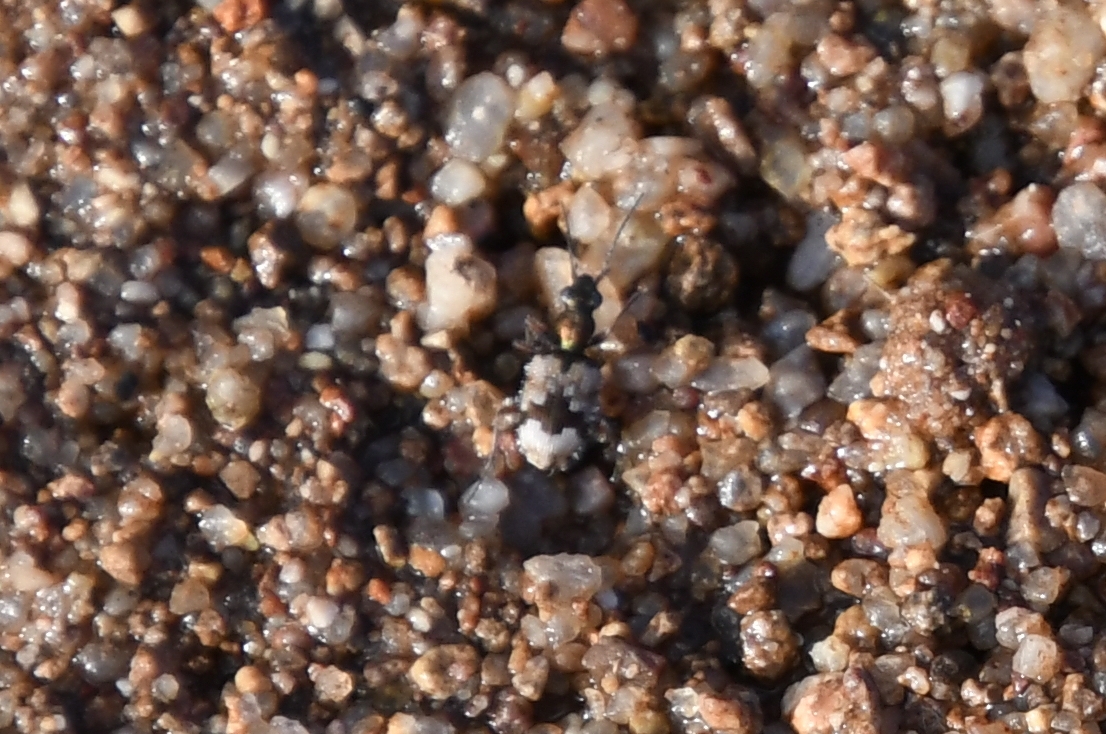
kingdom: Animalia
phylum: Arthropoda
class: Insecta
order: Coleoptera
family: Carabidae
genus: Lachnophorus
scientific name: Lachnophorus elegantulus
